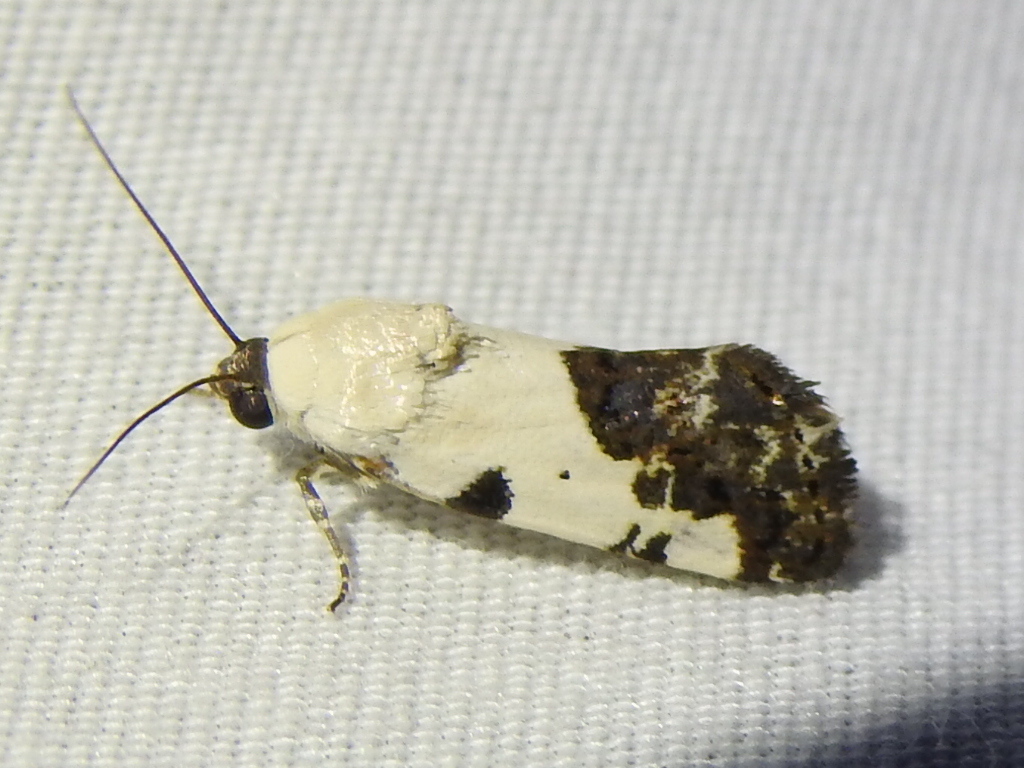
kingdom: Animalia
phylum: Arthropoda
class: Insecta
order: Lepidoptera
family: Noctuidae
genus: Acontia
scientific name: Acontia aprica
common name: Nun
